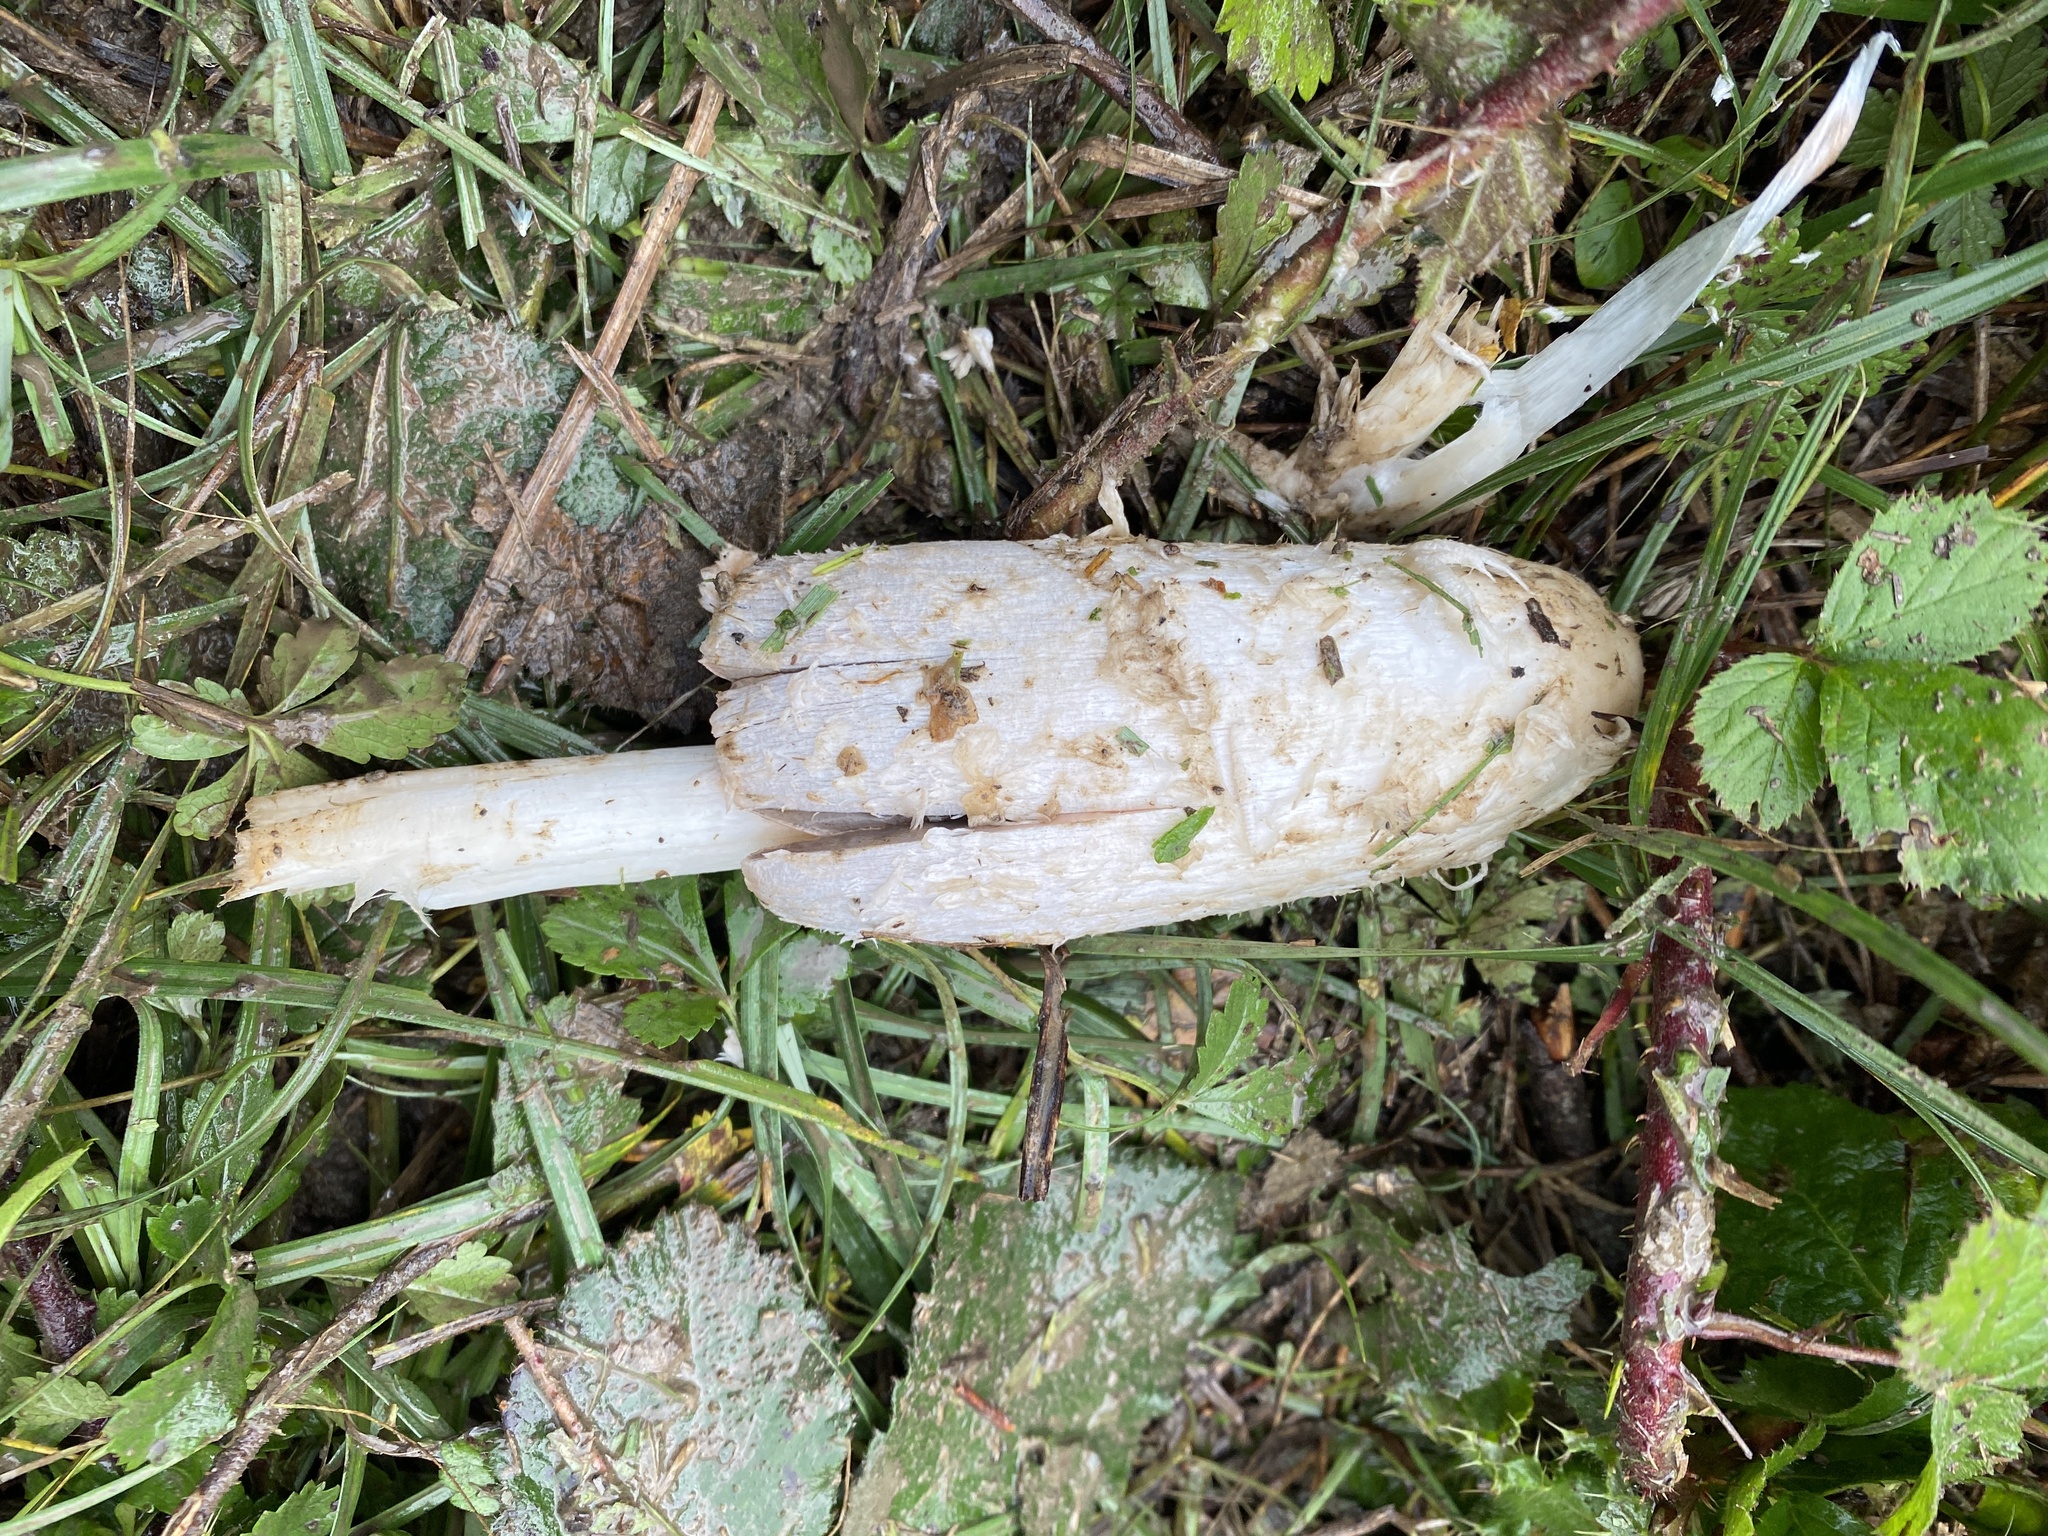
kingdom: Fungi
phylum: Basidiomycota
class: Agaricomycetes
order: Agaricales
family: Agaricaceae
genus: Coprinus
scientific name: Coprinus comatus
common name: Lawyer's wig
